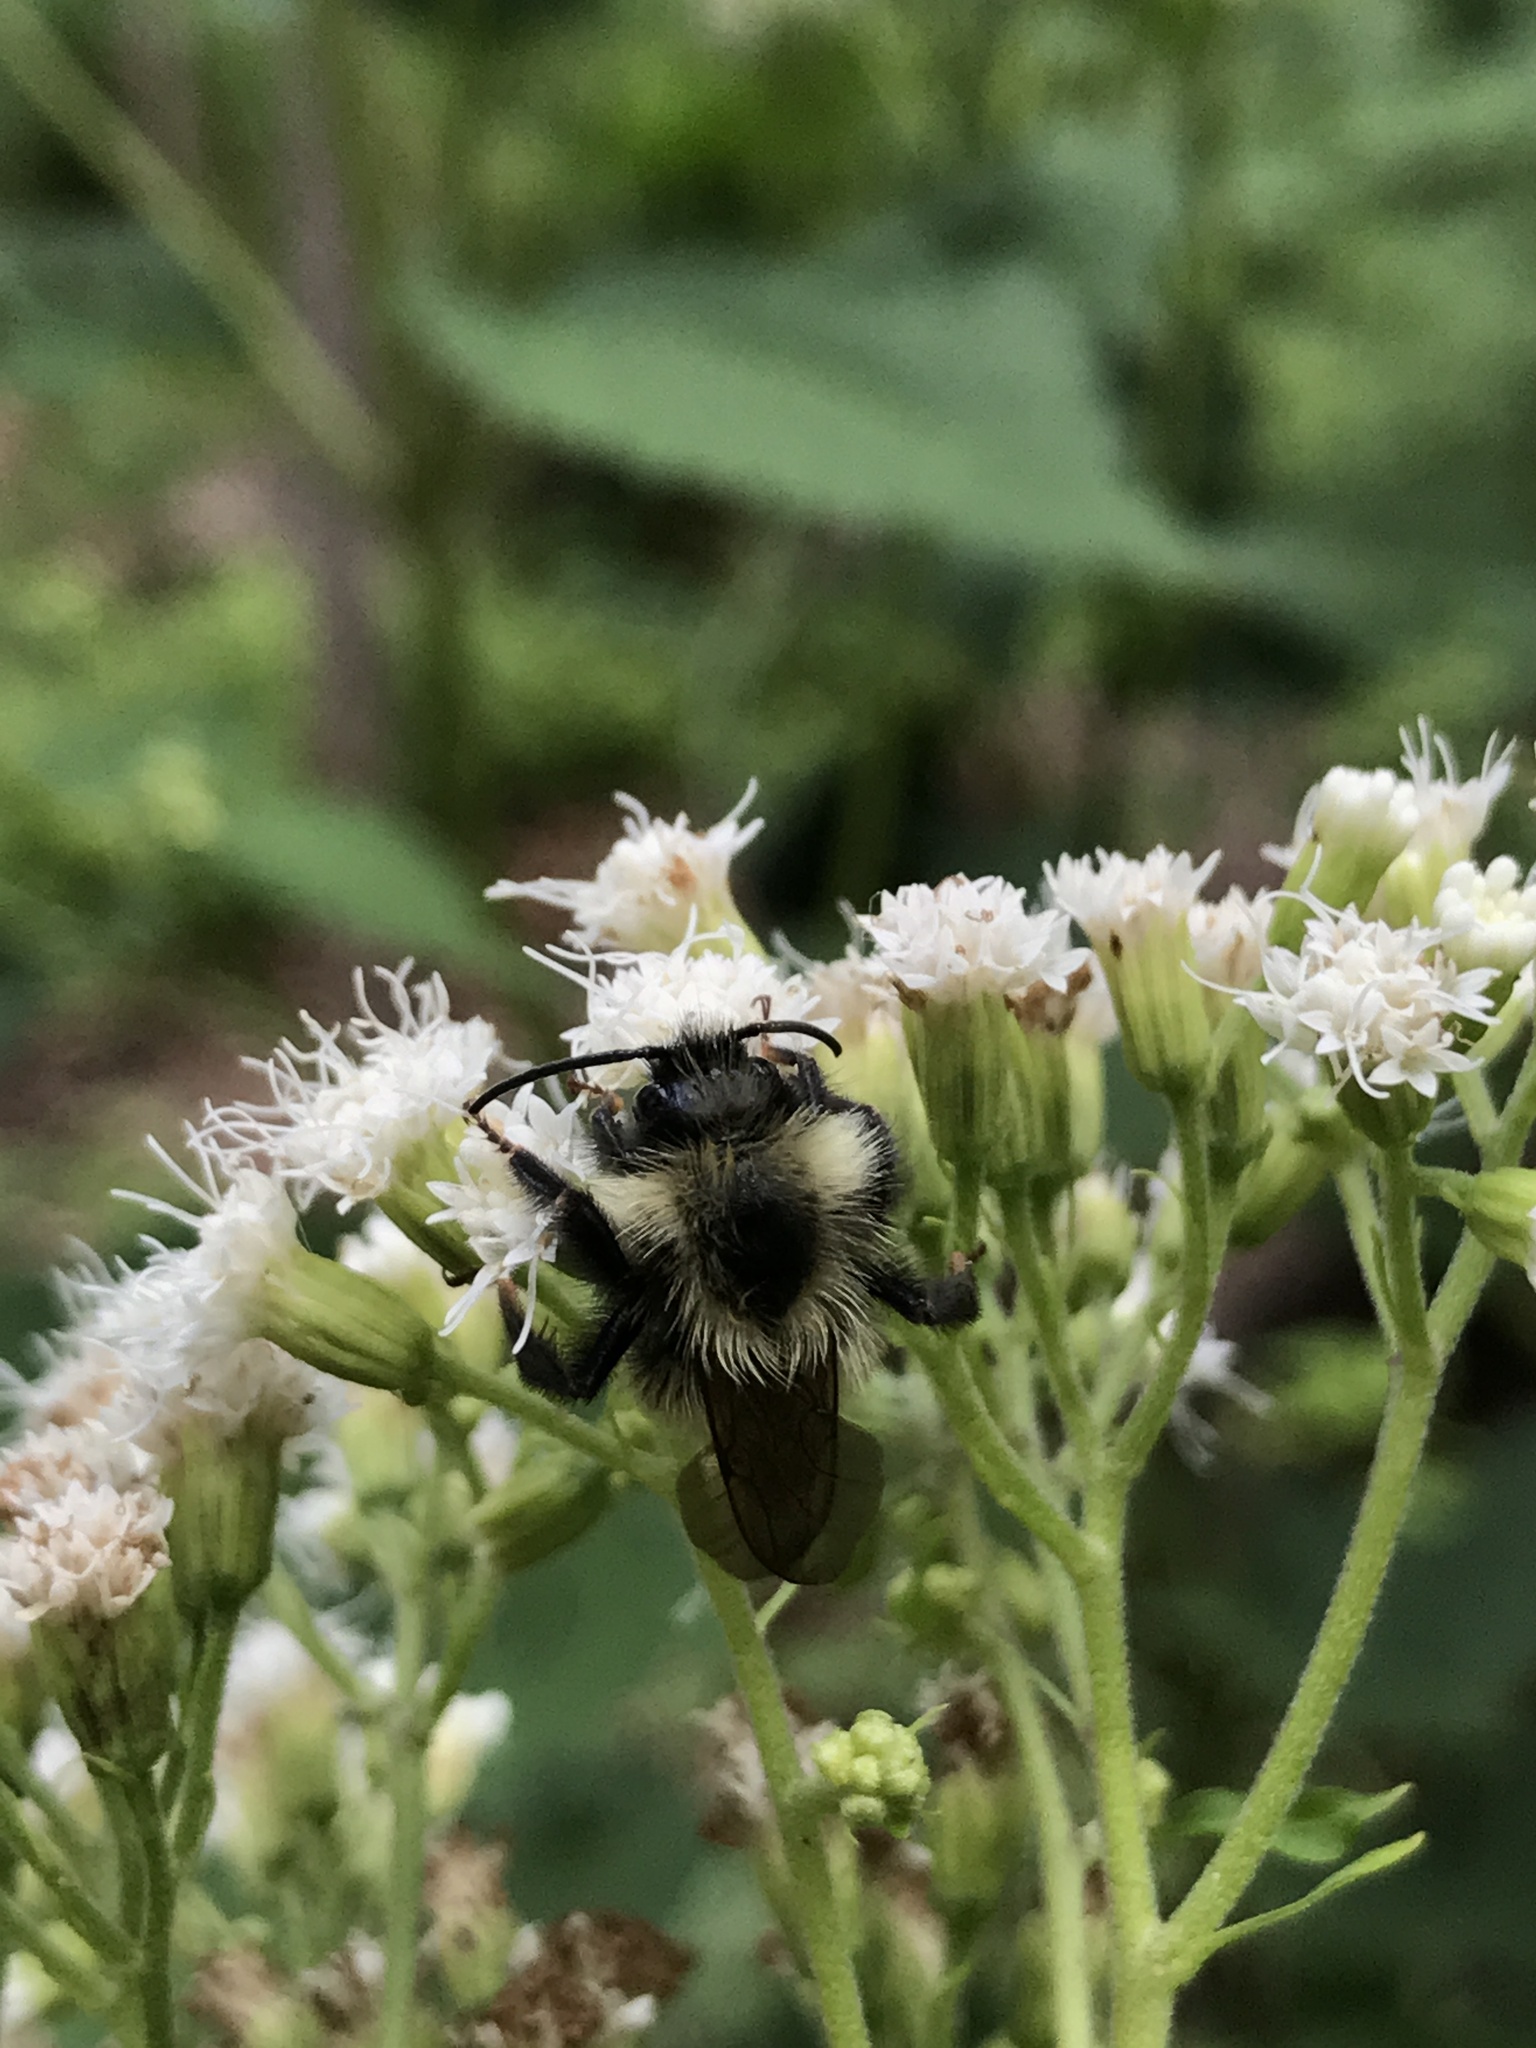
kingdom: Animalia
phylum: Arthropoda
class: Insecta
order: Hymenoptera
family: Apidae
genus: Bombus
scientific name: Bombus citrinus
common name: Lemon cuckoo bumble bee
